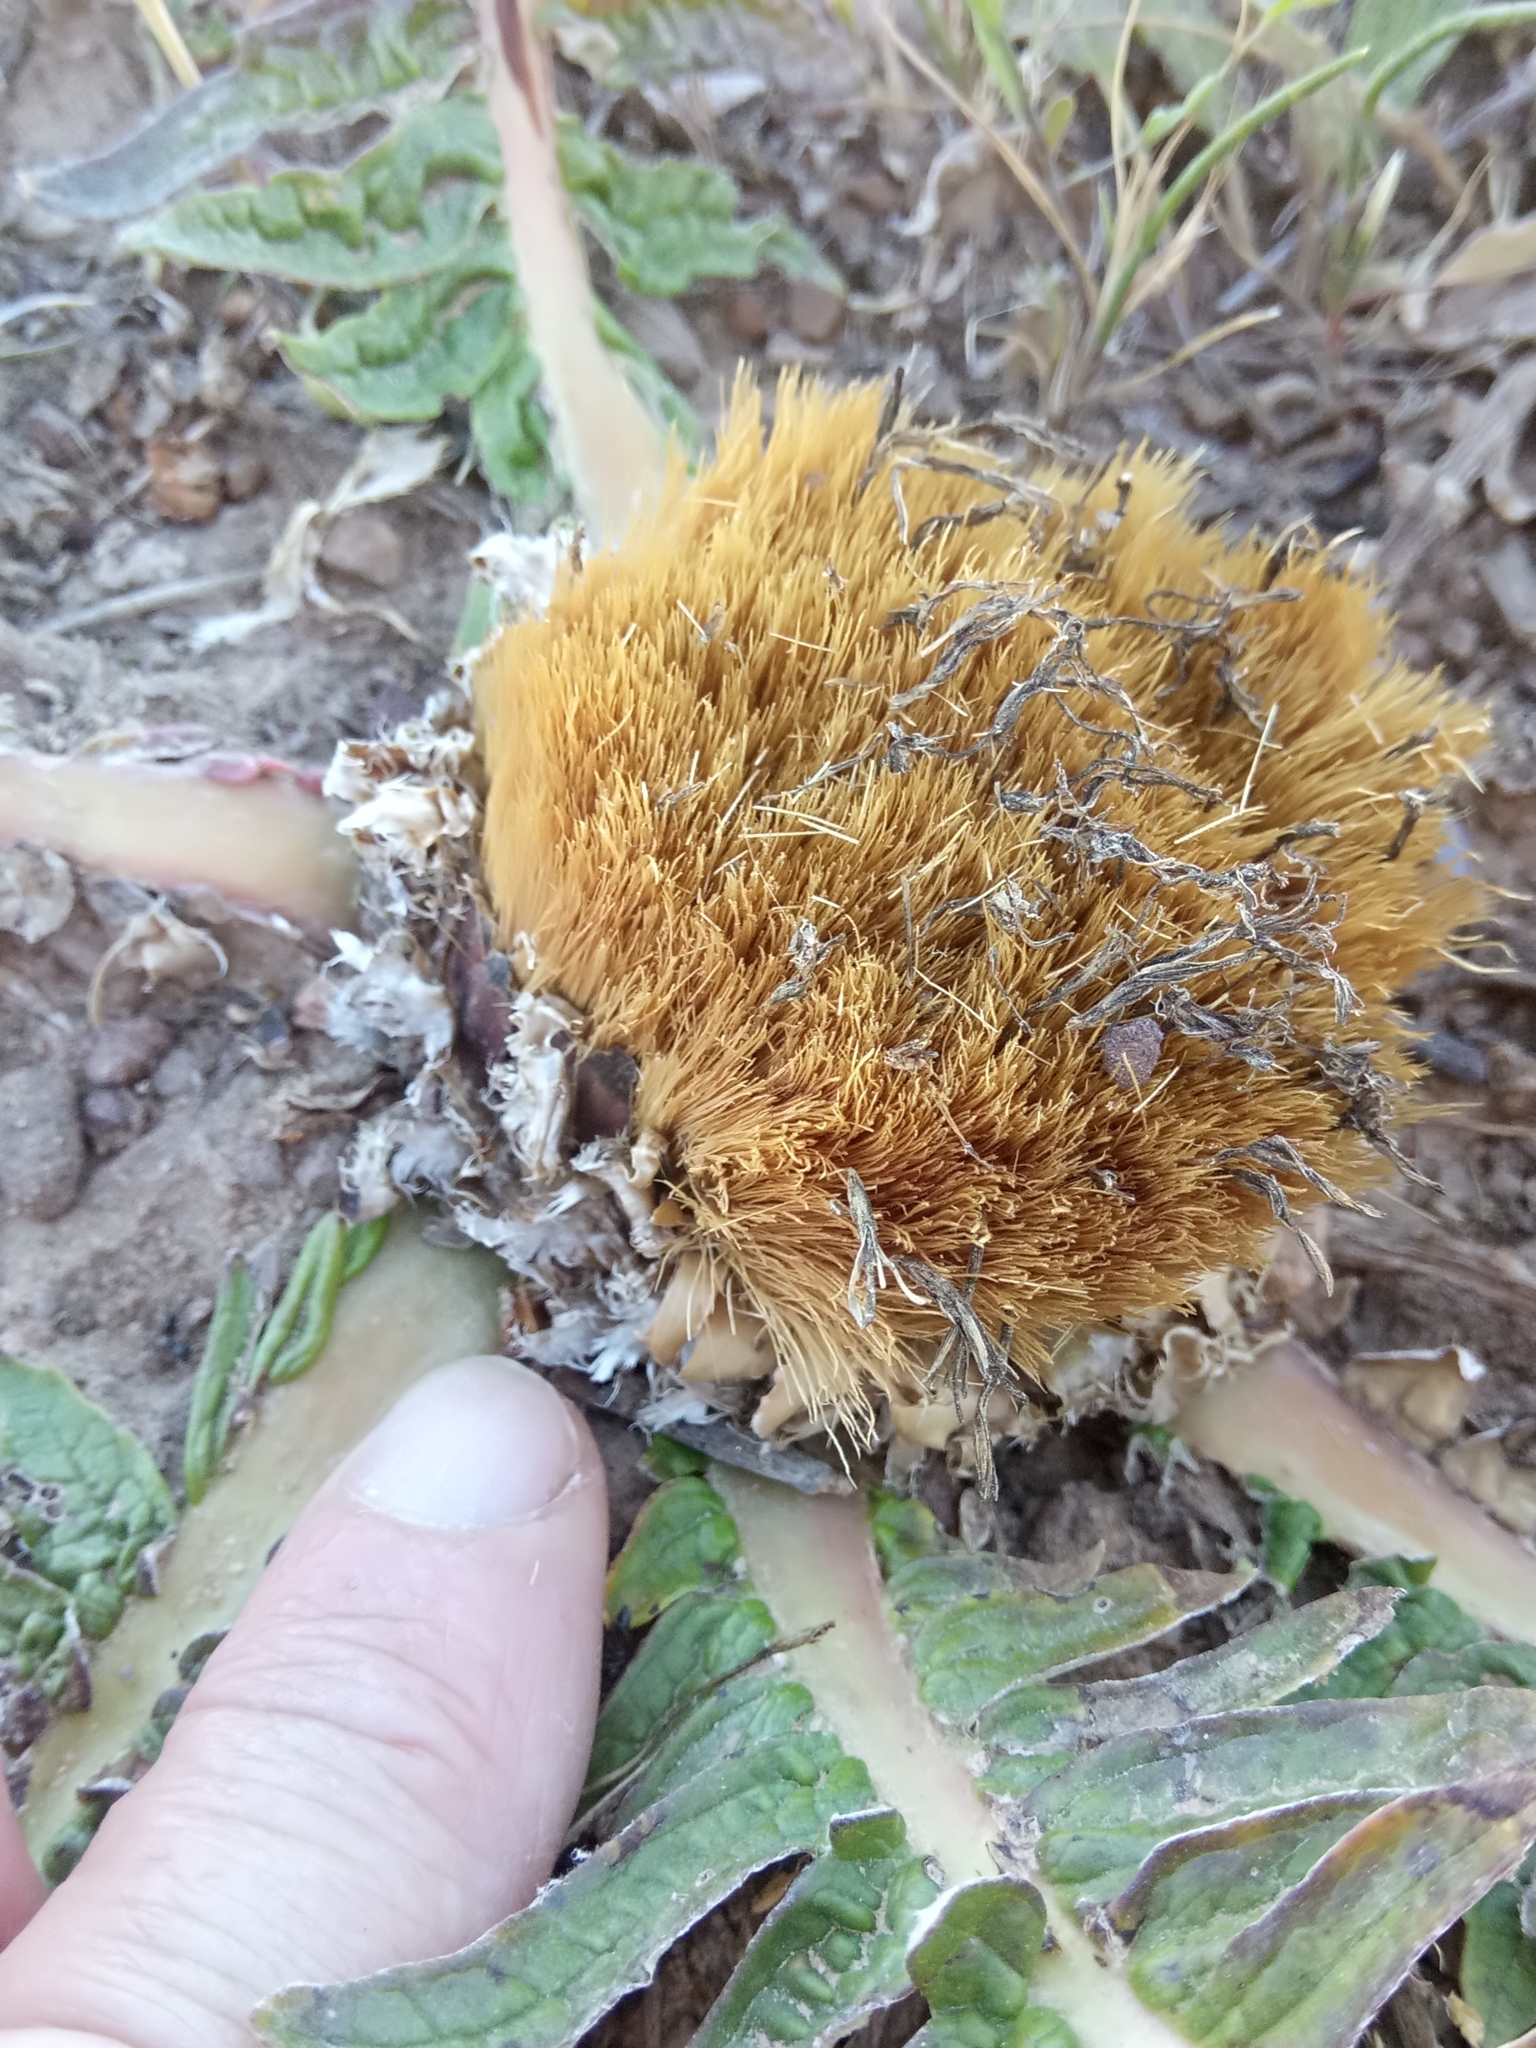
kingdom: Plantae
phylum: Tracheophyta
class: Magnoliopsida
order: Asterales
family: Asteraceae
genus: Leuzea
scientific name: Leuzea acaulis
